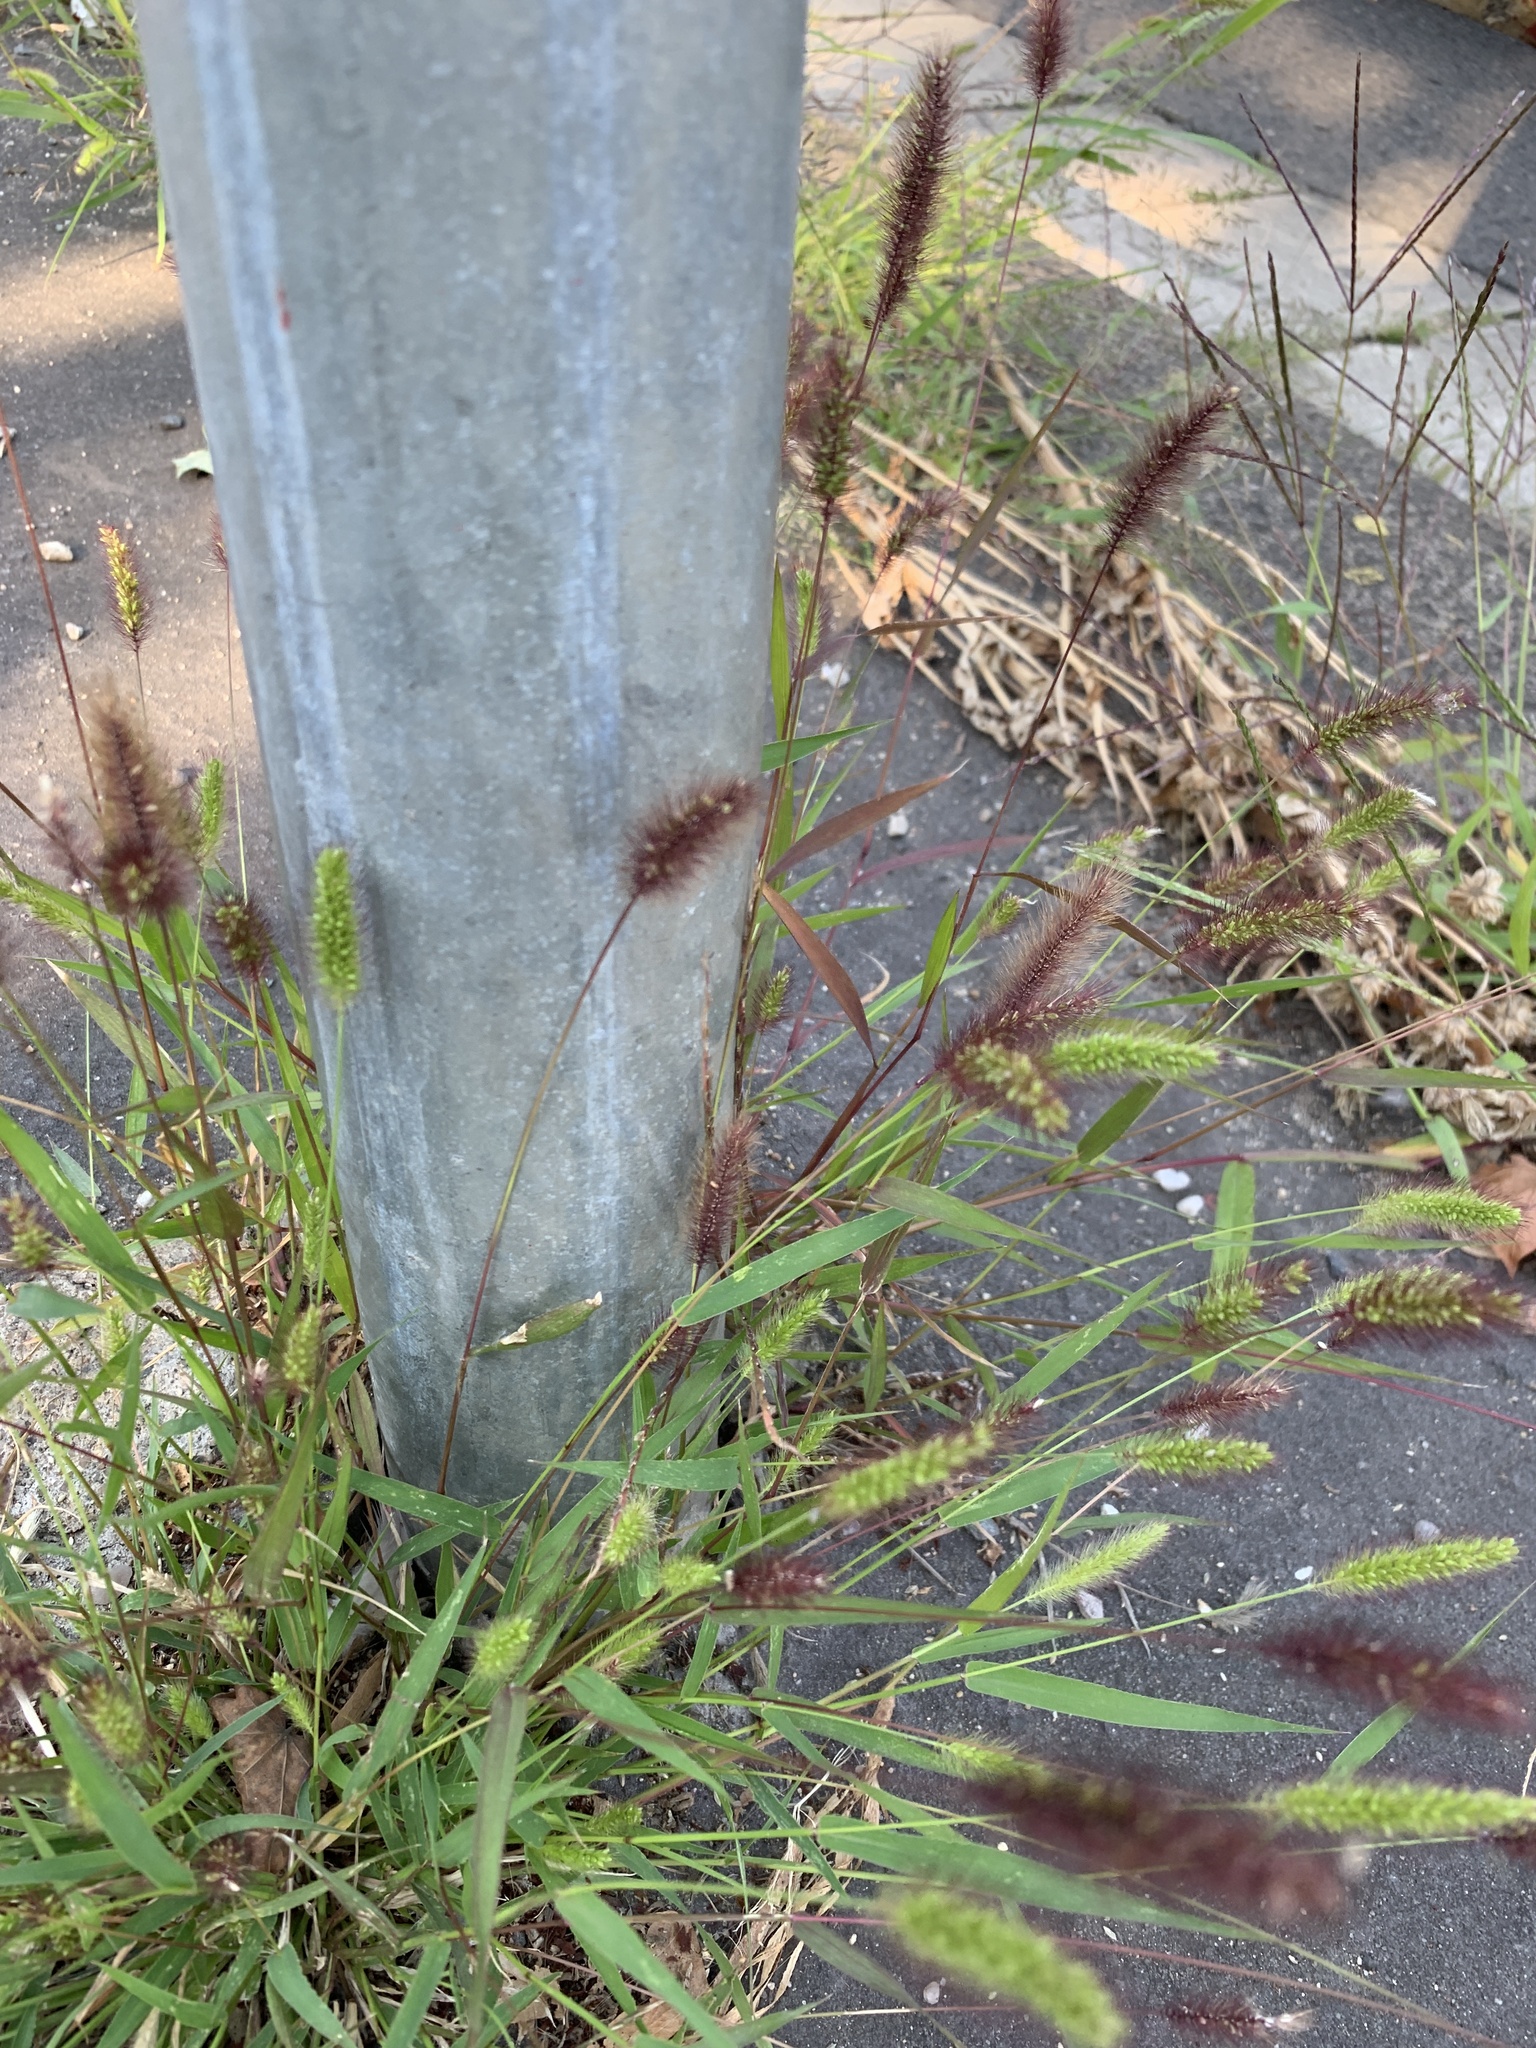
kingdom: Plantae
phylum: Tracheophyta
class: Liliopsida
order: Poales
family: Poaceae
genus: Setaria
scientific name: Setaria viridis
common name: Green bristlegrass
